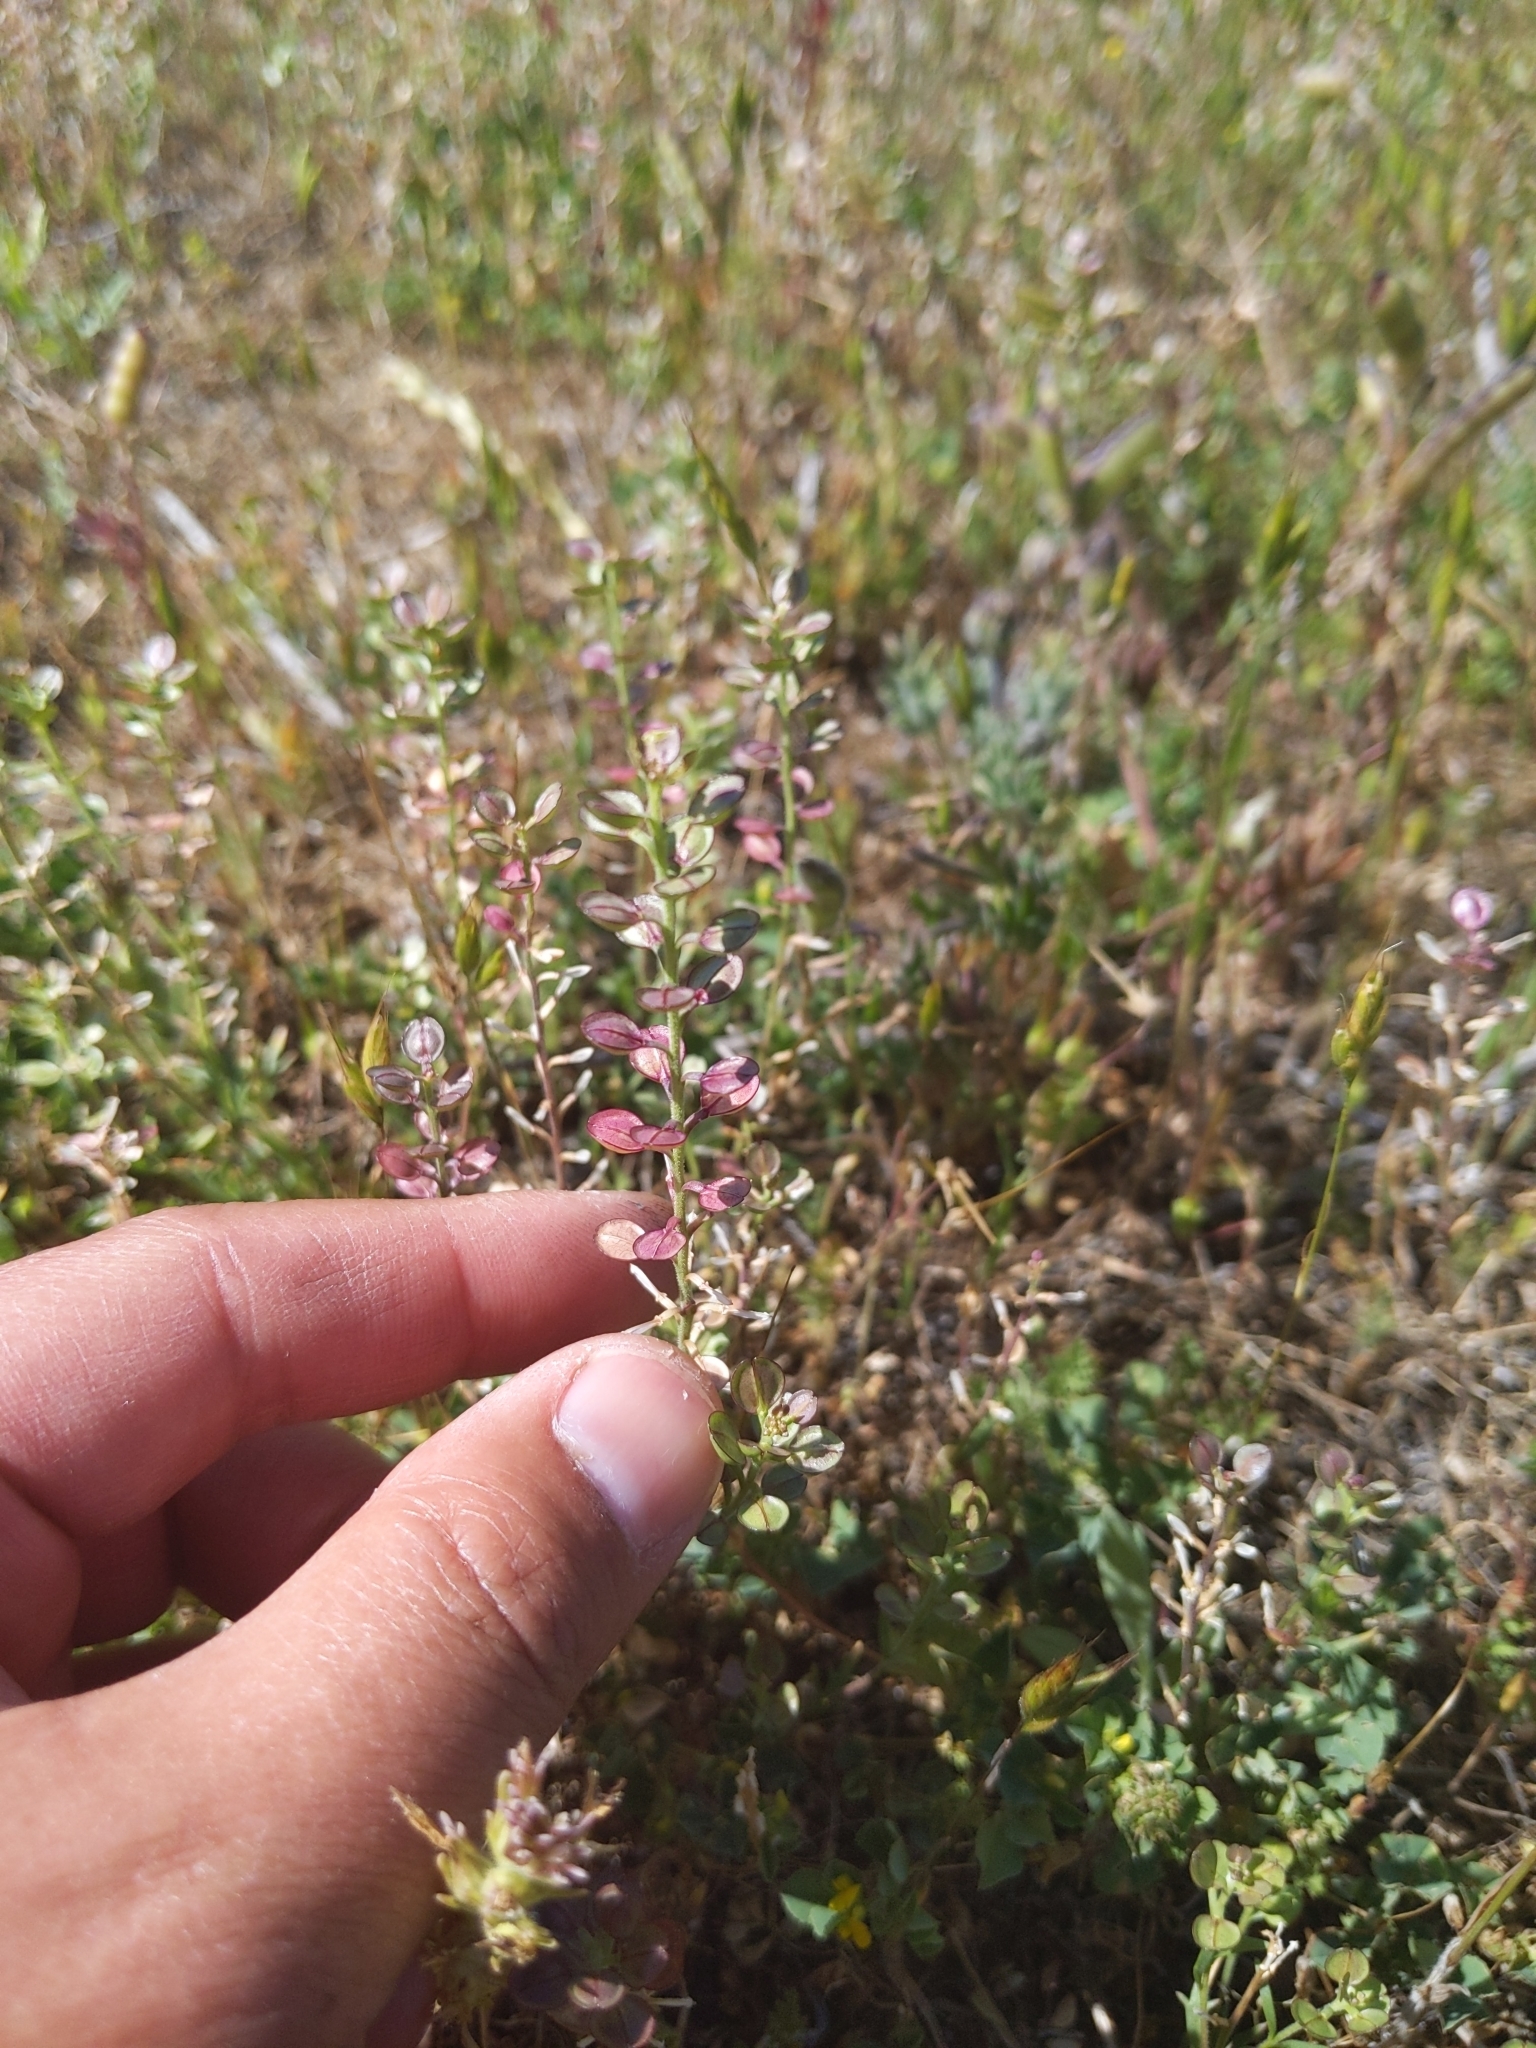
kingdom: Plantae
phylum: Tracheophyta
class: Magnoliopsida
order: Brassicales
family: Brassicaceae
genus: Lepidium
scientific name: Lepidium nitidum
